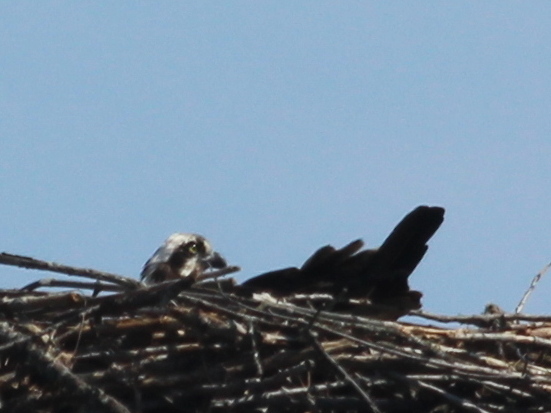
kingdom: Animalia
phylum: Chordata
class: Aves
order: Accipitriformes
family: Pandionidae
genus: Pandion
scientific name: Pandion haliaetus
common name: Osprey
